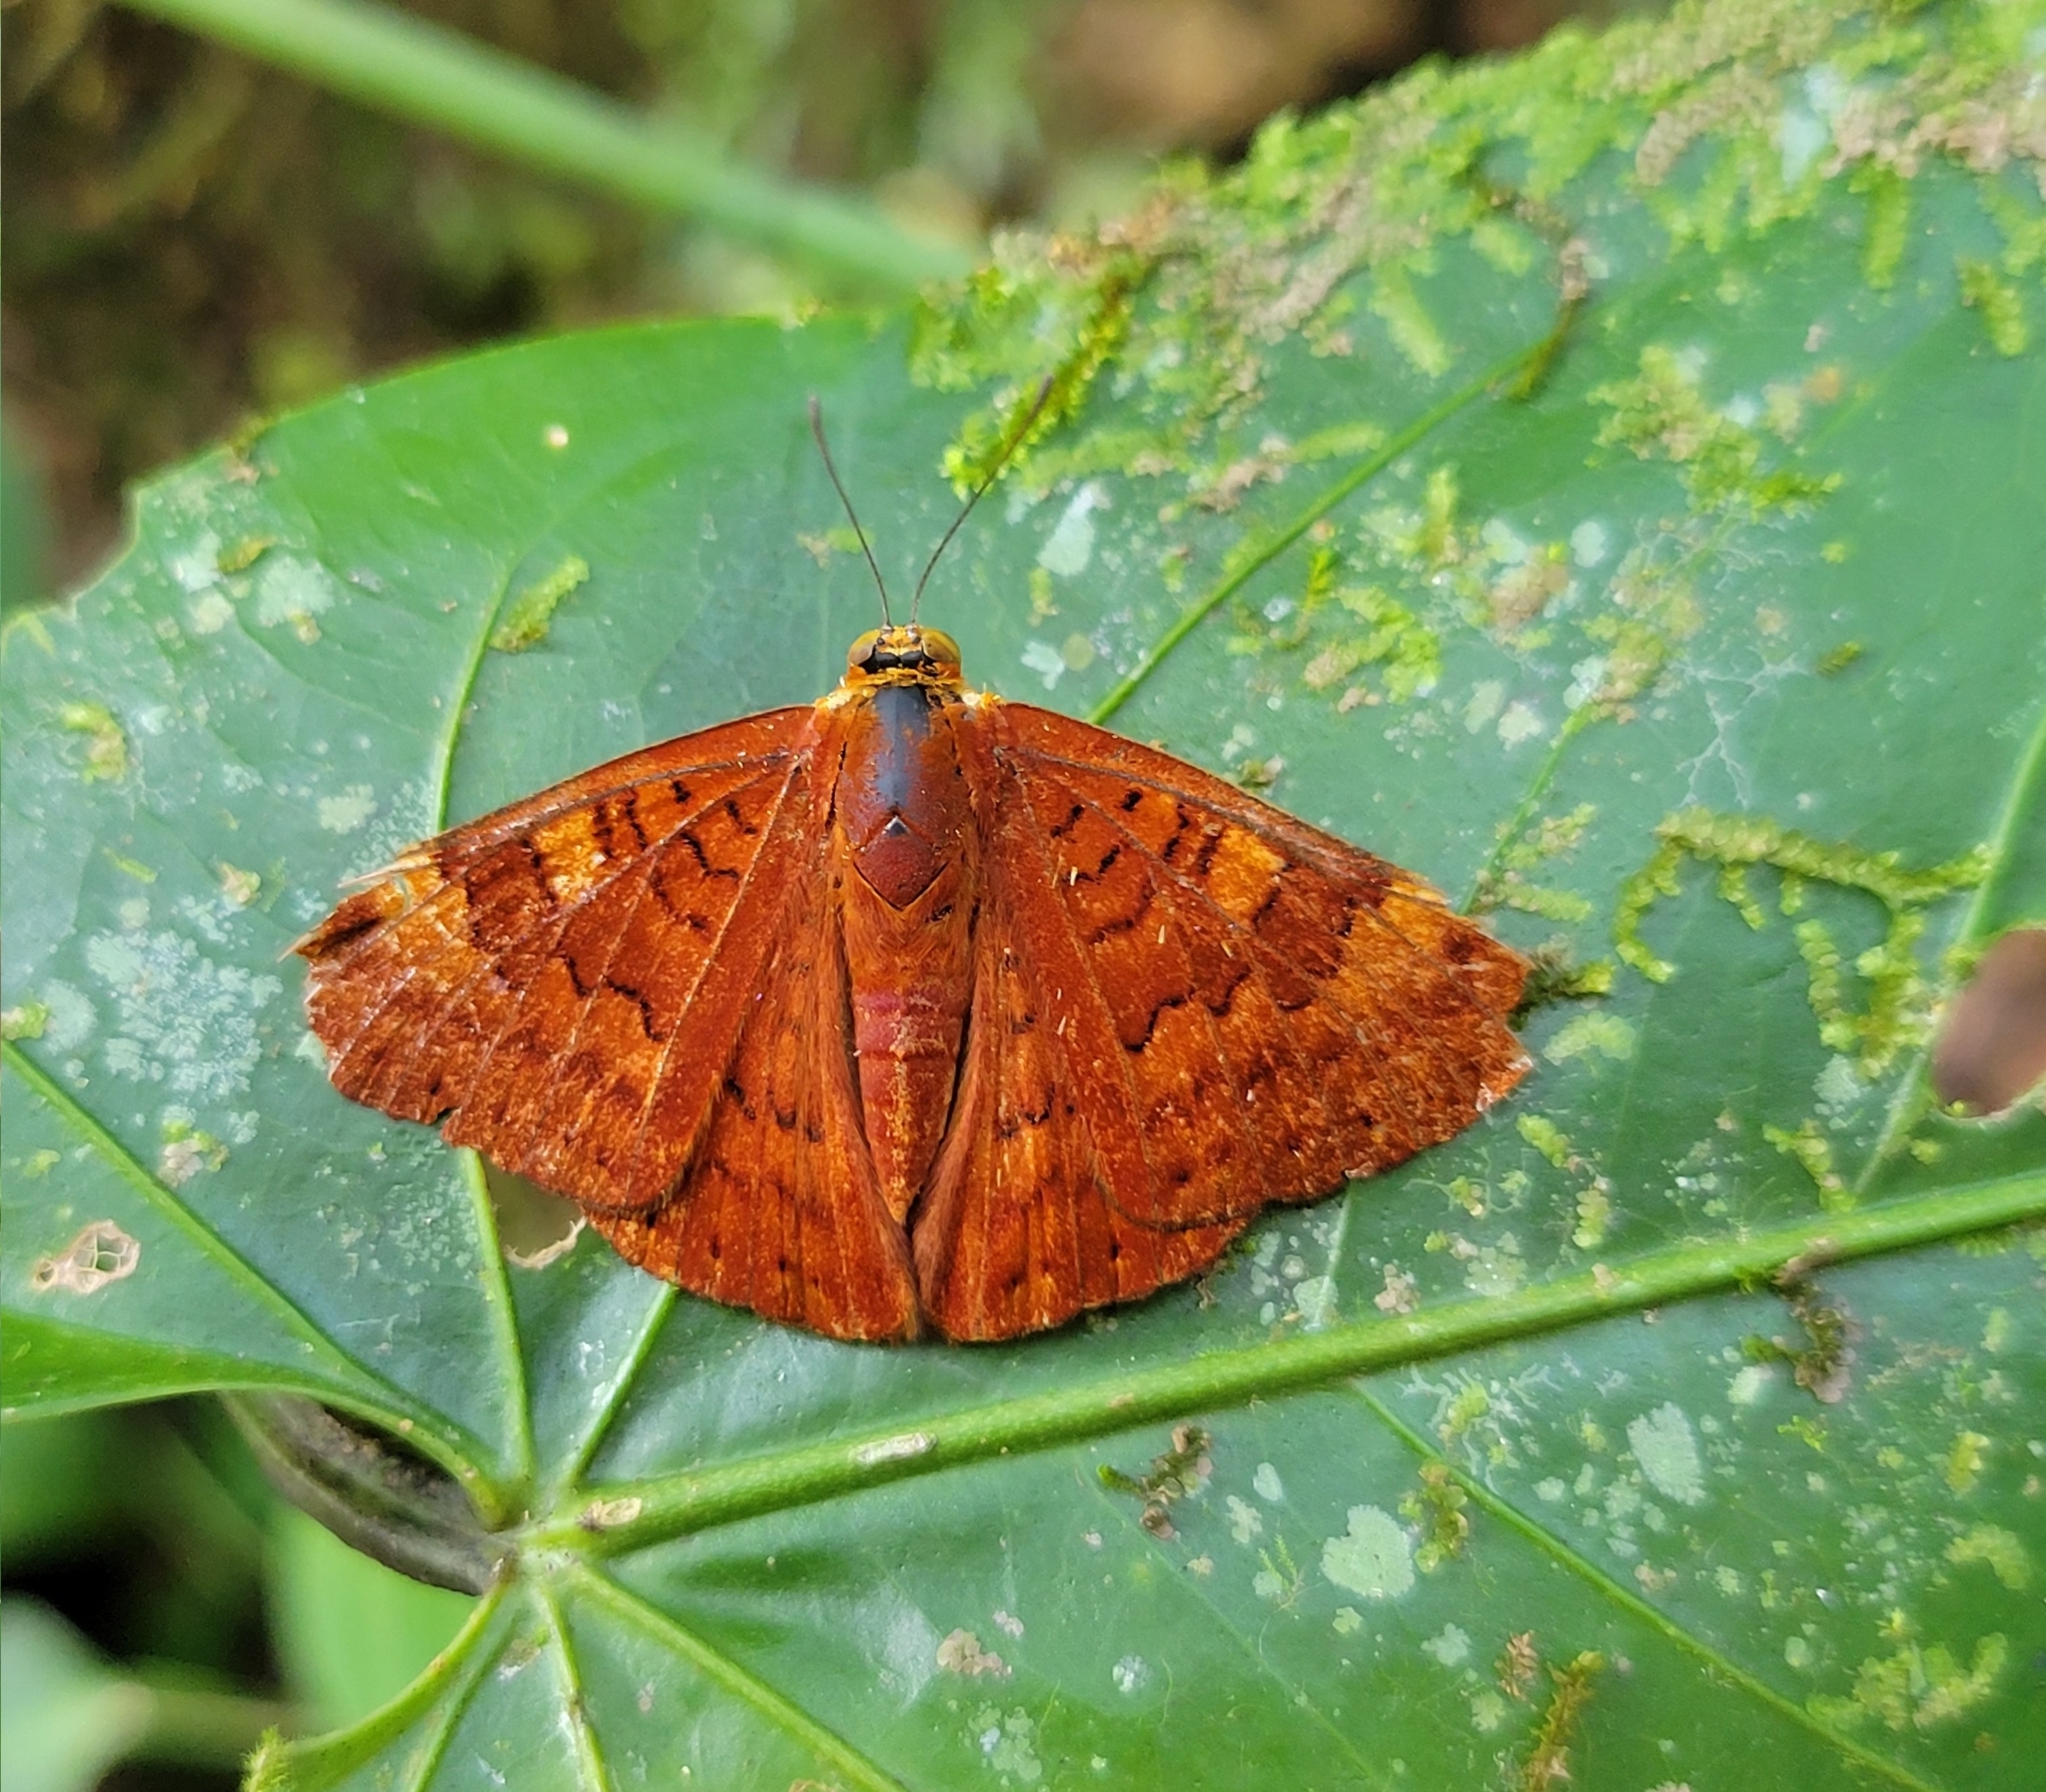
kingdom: Animalia
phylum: Arthropoda
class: Insecta
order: Lepidoptera
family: Lycaenidae
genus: Emesis
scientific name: Emesis mandana
